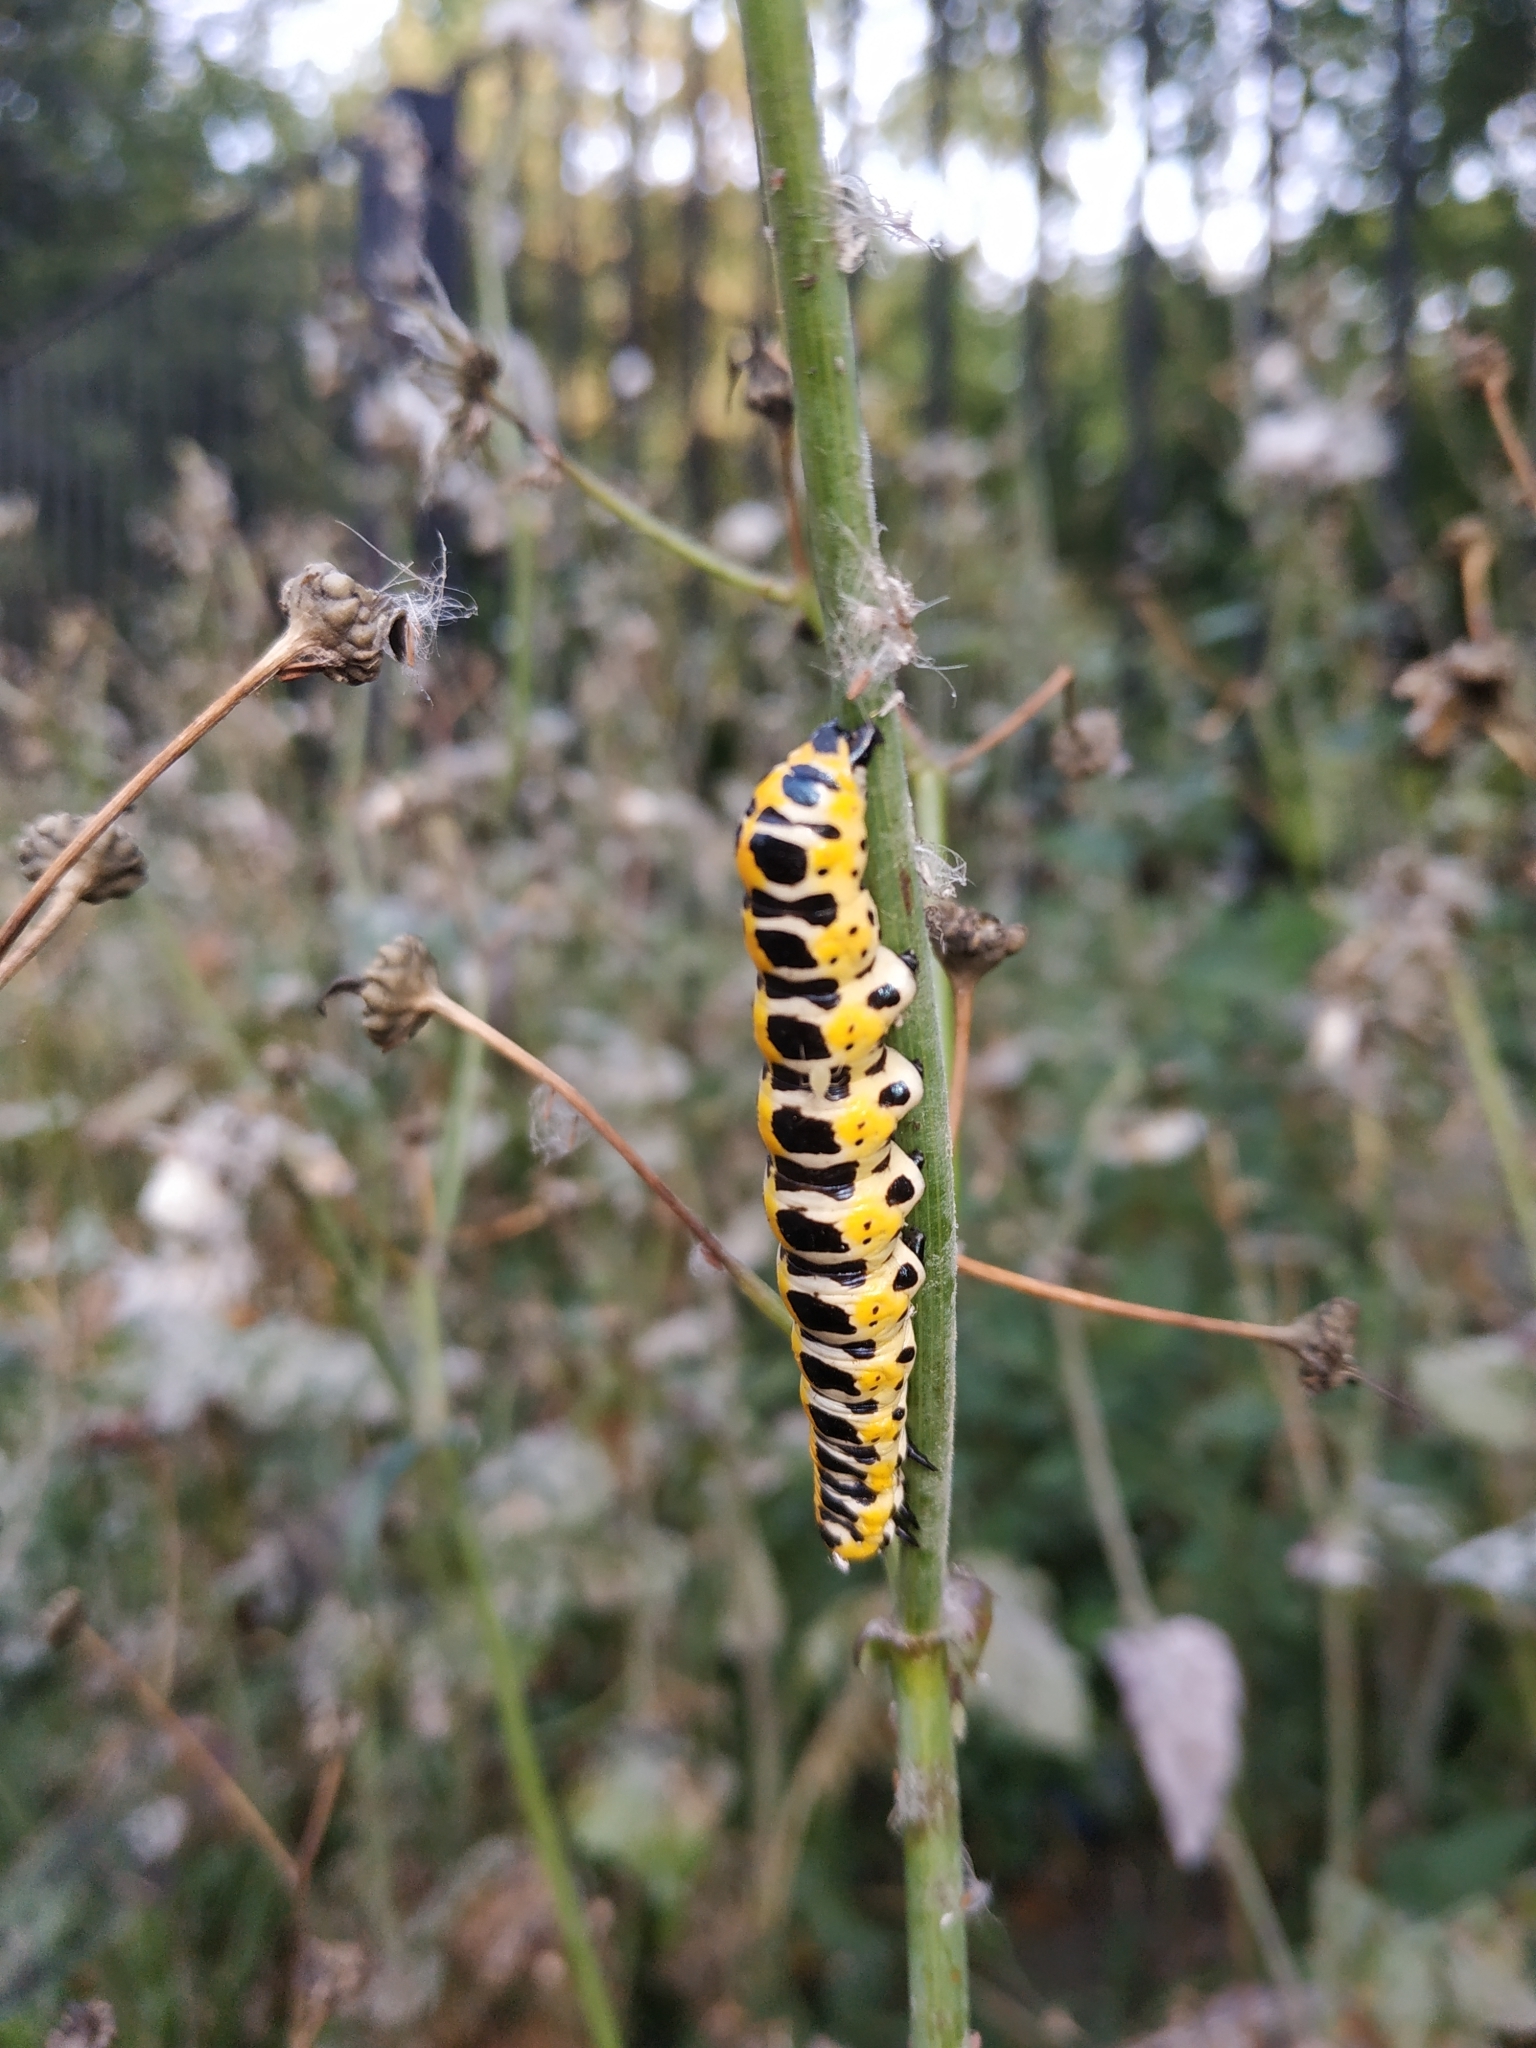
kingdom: Animalia
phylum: Arthropoda
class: Insecta
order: Lepidoptera
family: Noctuidae
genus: Cucullia
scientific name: Cucullia lactucae
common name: Lettuce shark
